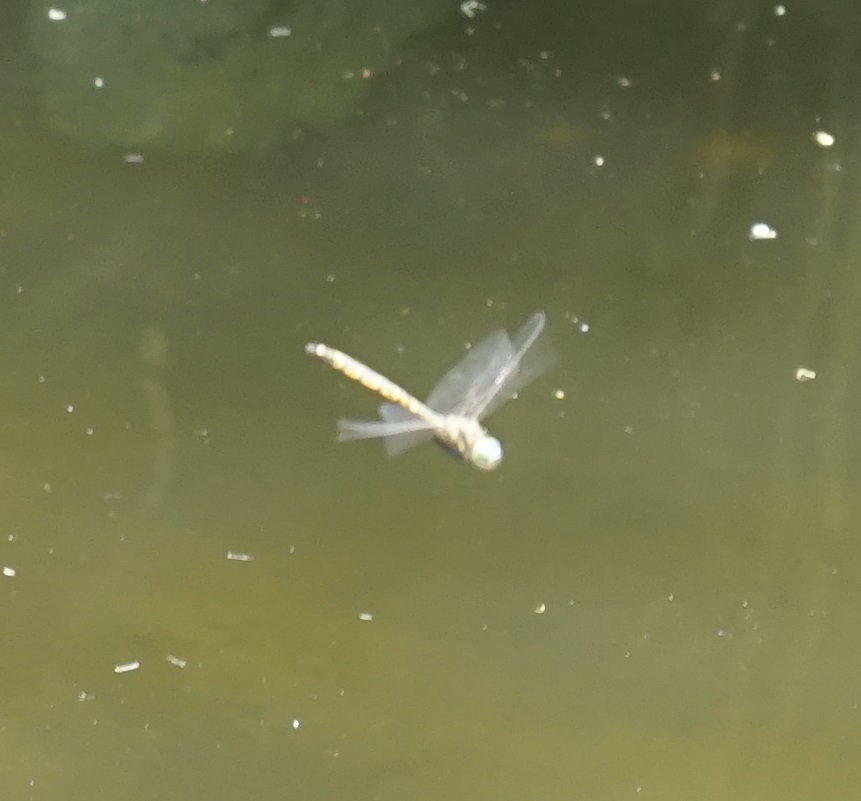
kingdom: Animalia
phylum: Arthropoda
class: Insecta
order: Odonata
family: Corduliidae
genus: Hemicordulia
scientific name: Hemicordulia australiae
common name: Sentry dragonfly
